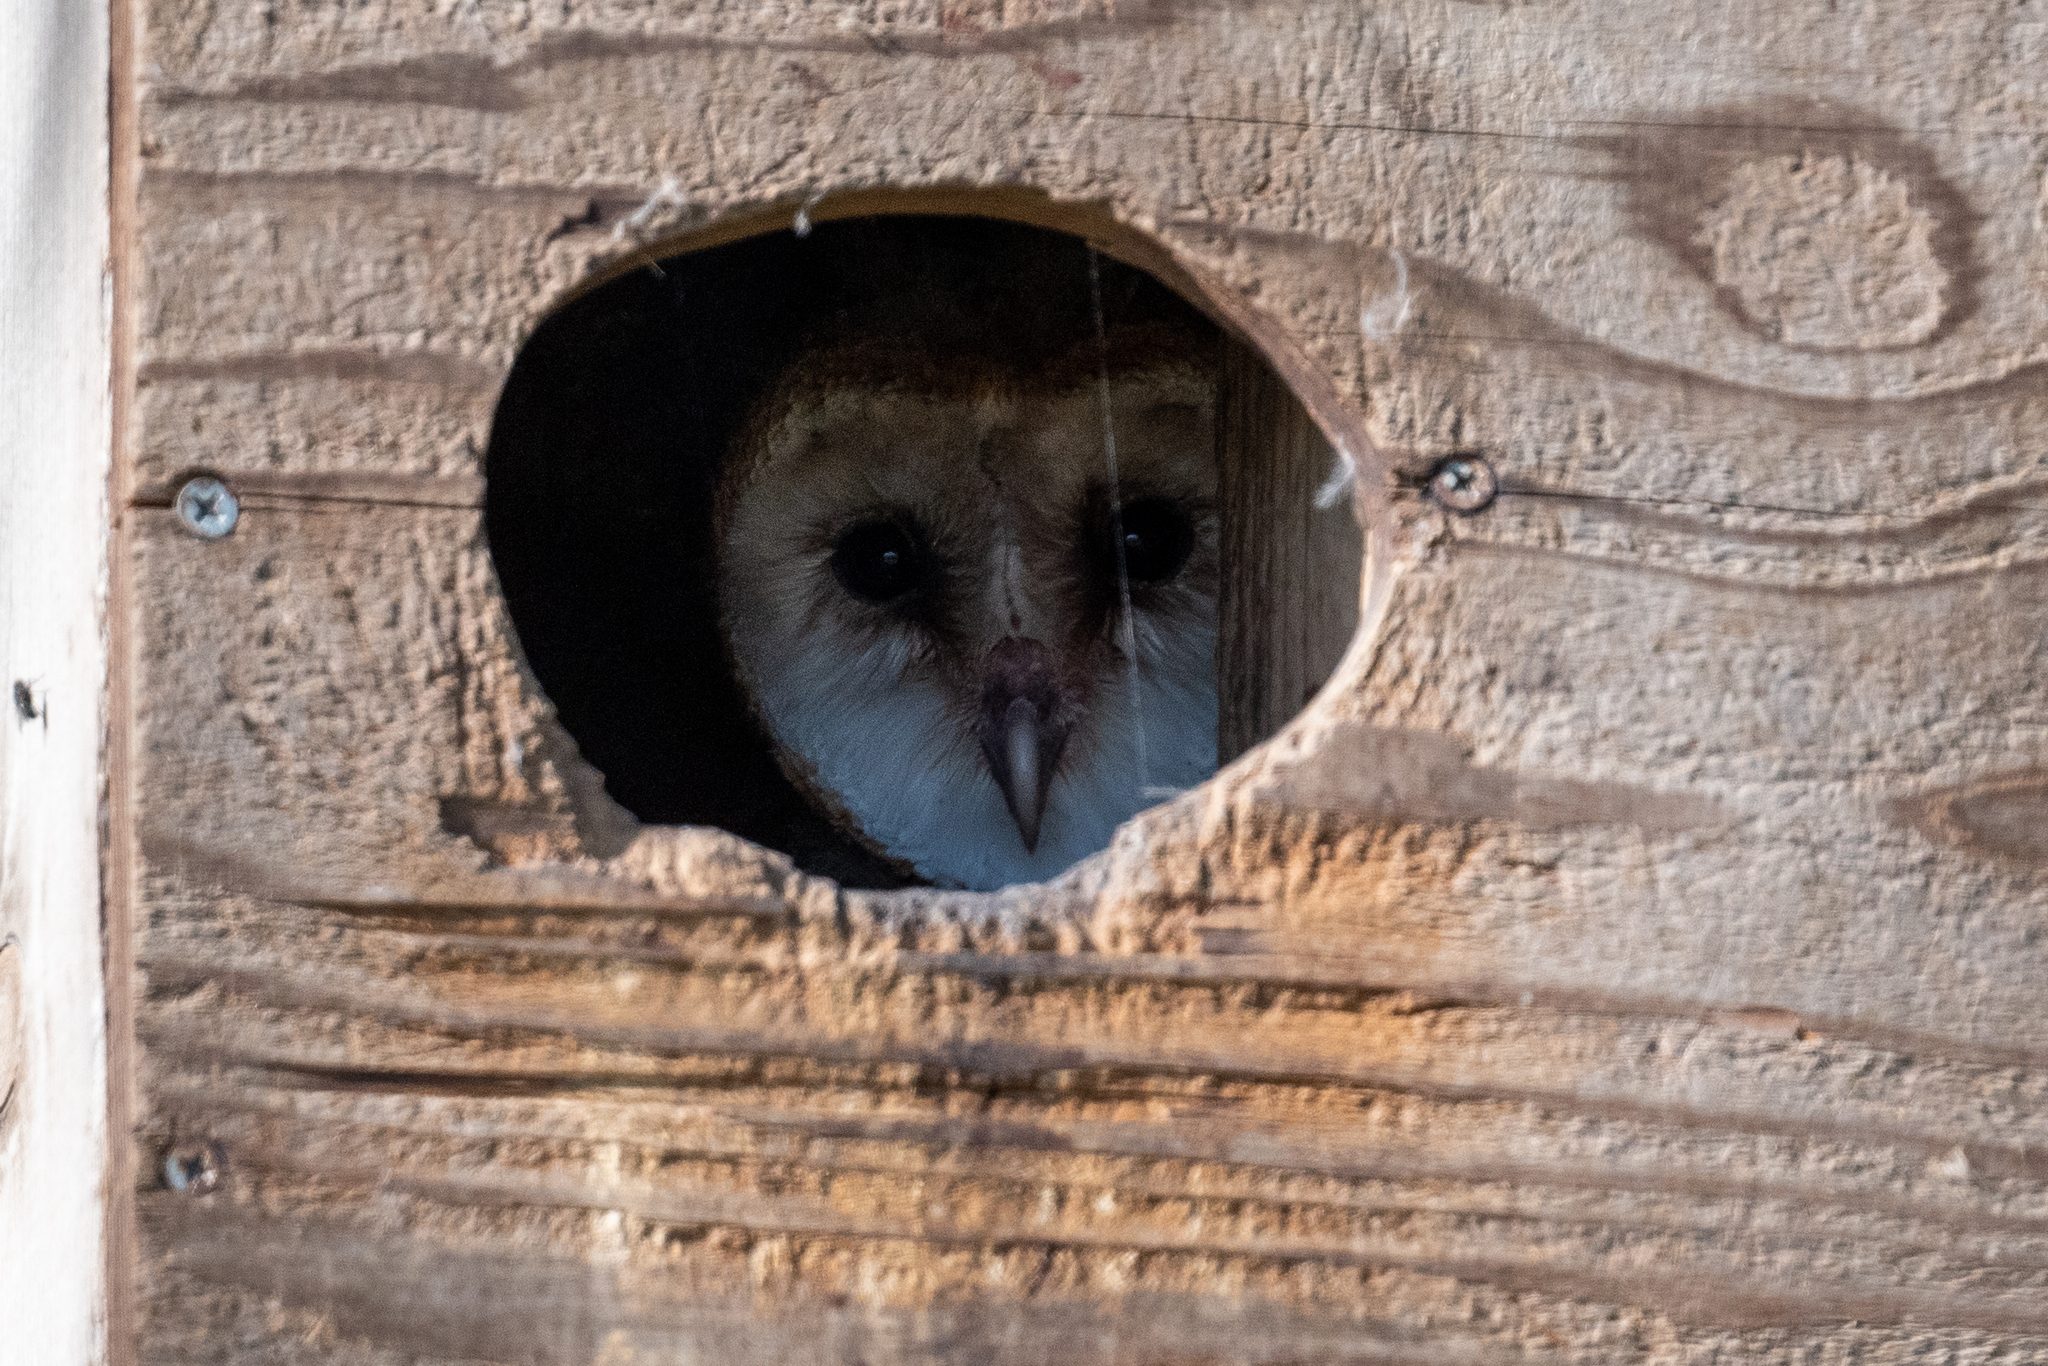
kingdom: Animalia
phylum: Chordata
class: Aves
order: Strigiformes
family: Tytonidae
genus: Tyto
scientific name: Tyto alba
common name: Barn owl
